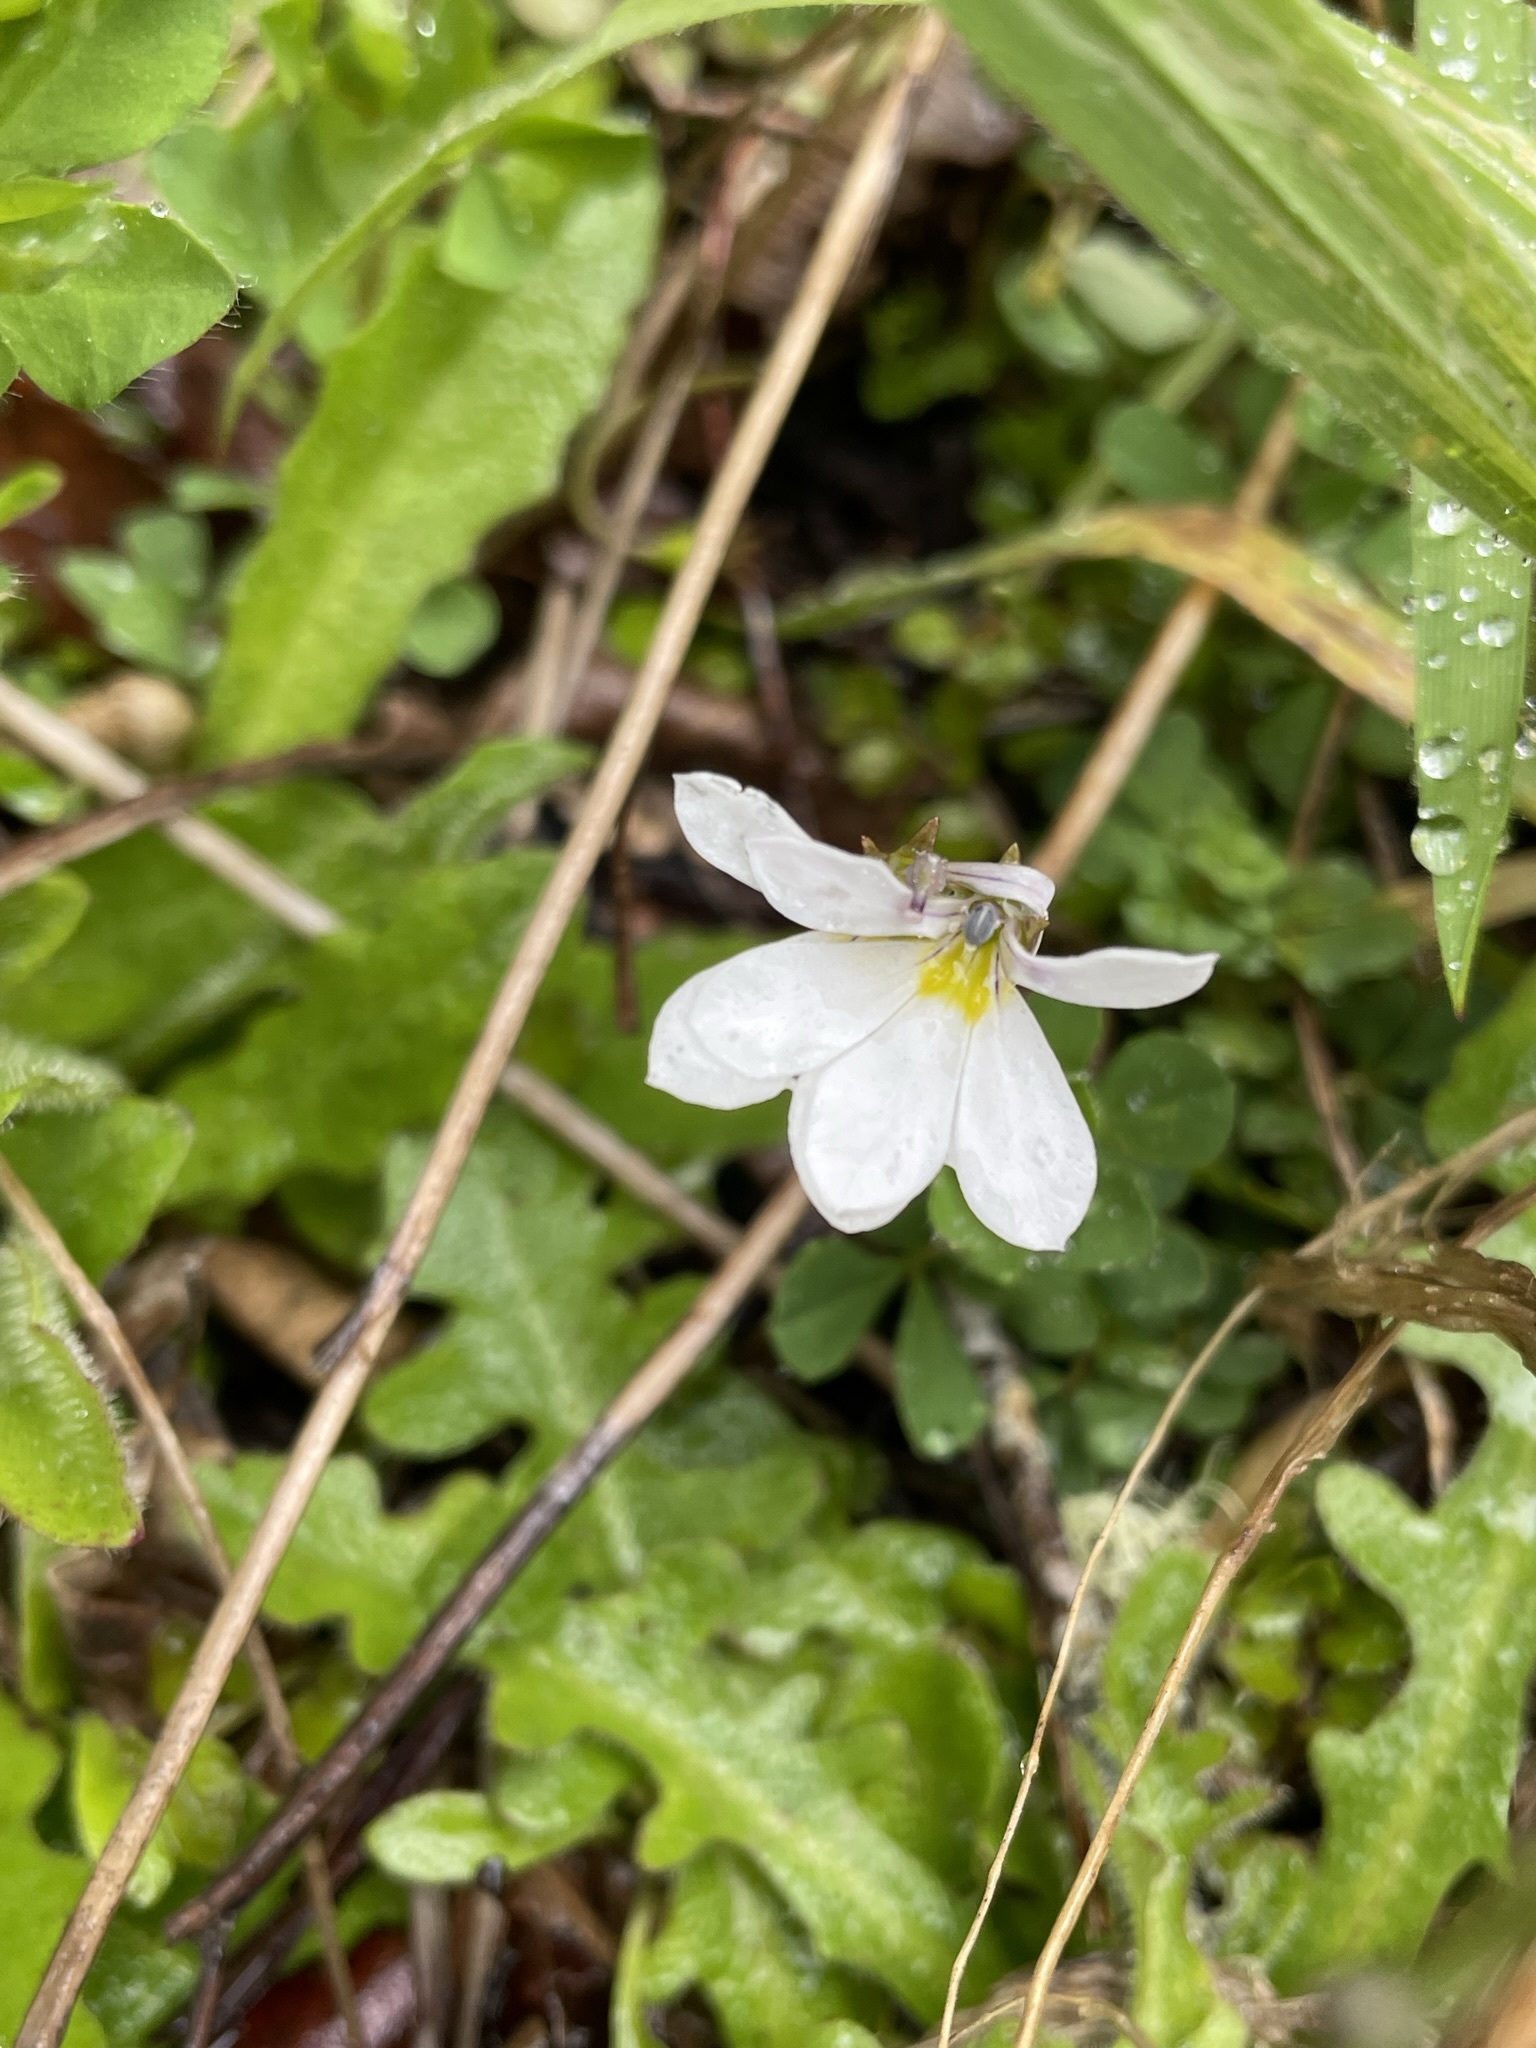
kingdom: Plantae
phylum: Tracheophyta
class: Magnoliopsida
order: Asterales
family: Campanulaceae
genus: Lobelia
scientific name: Lobelia angulata
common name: Lawn lobelia
